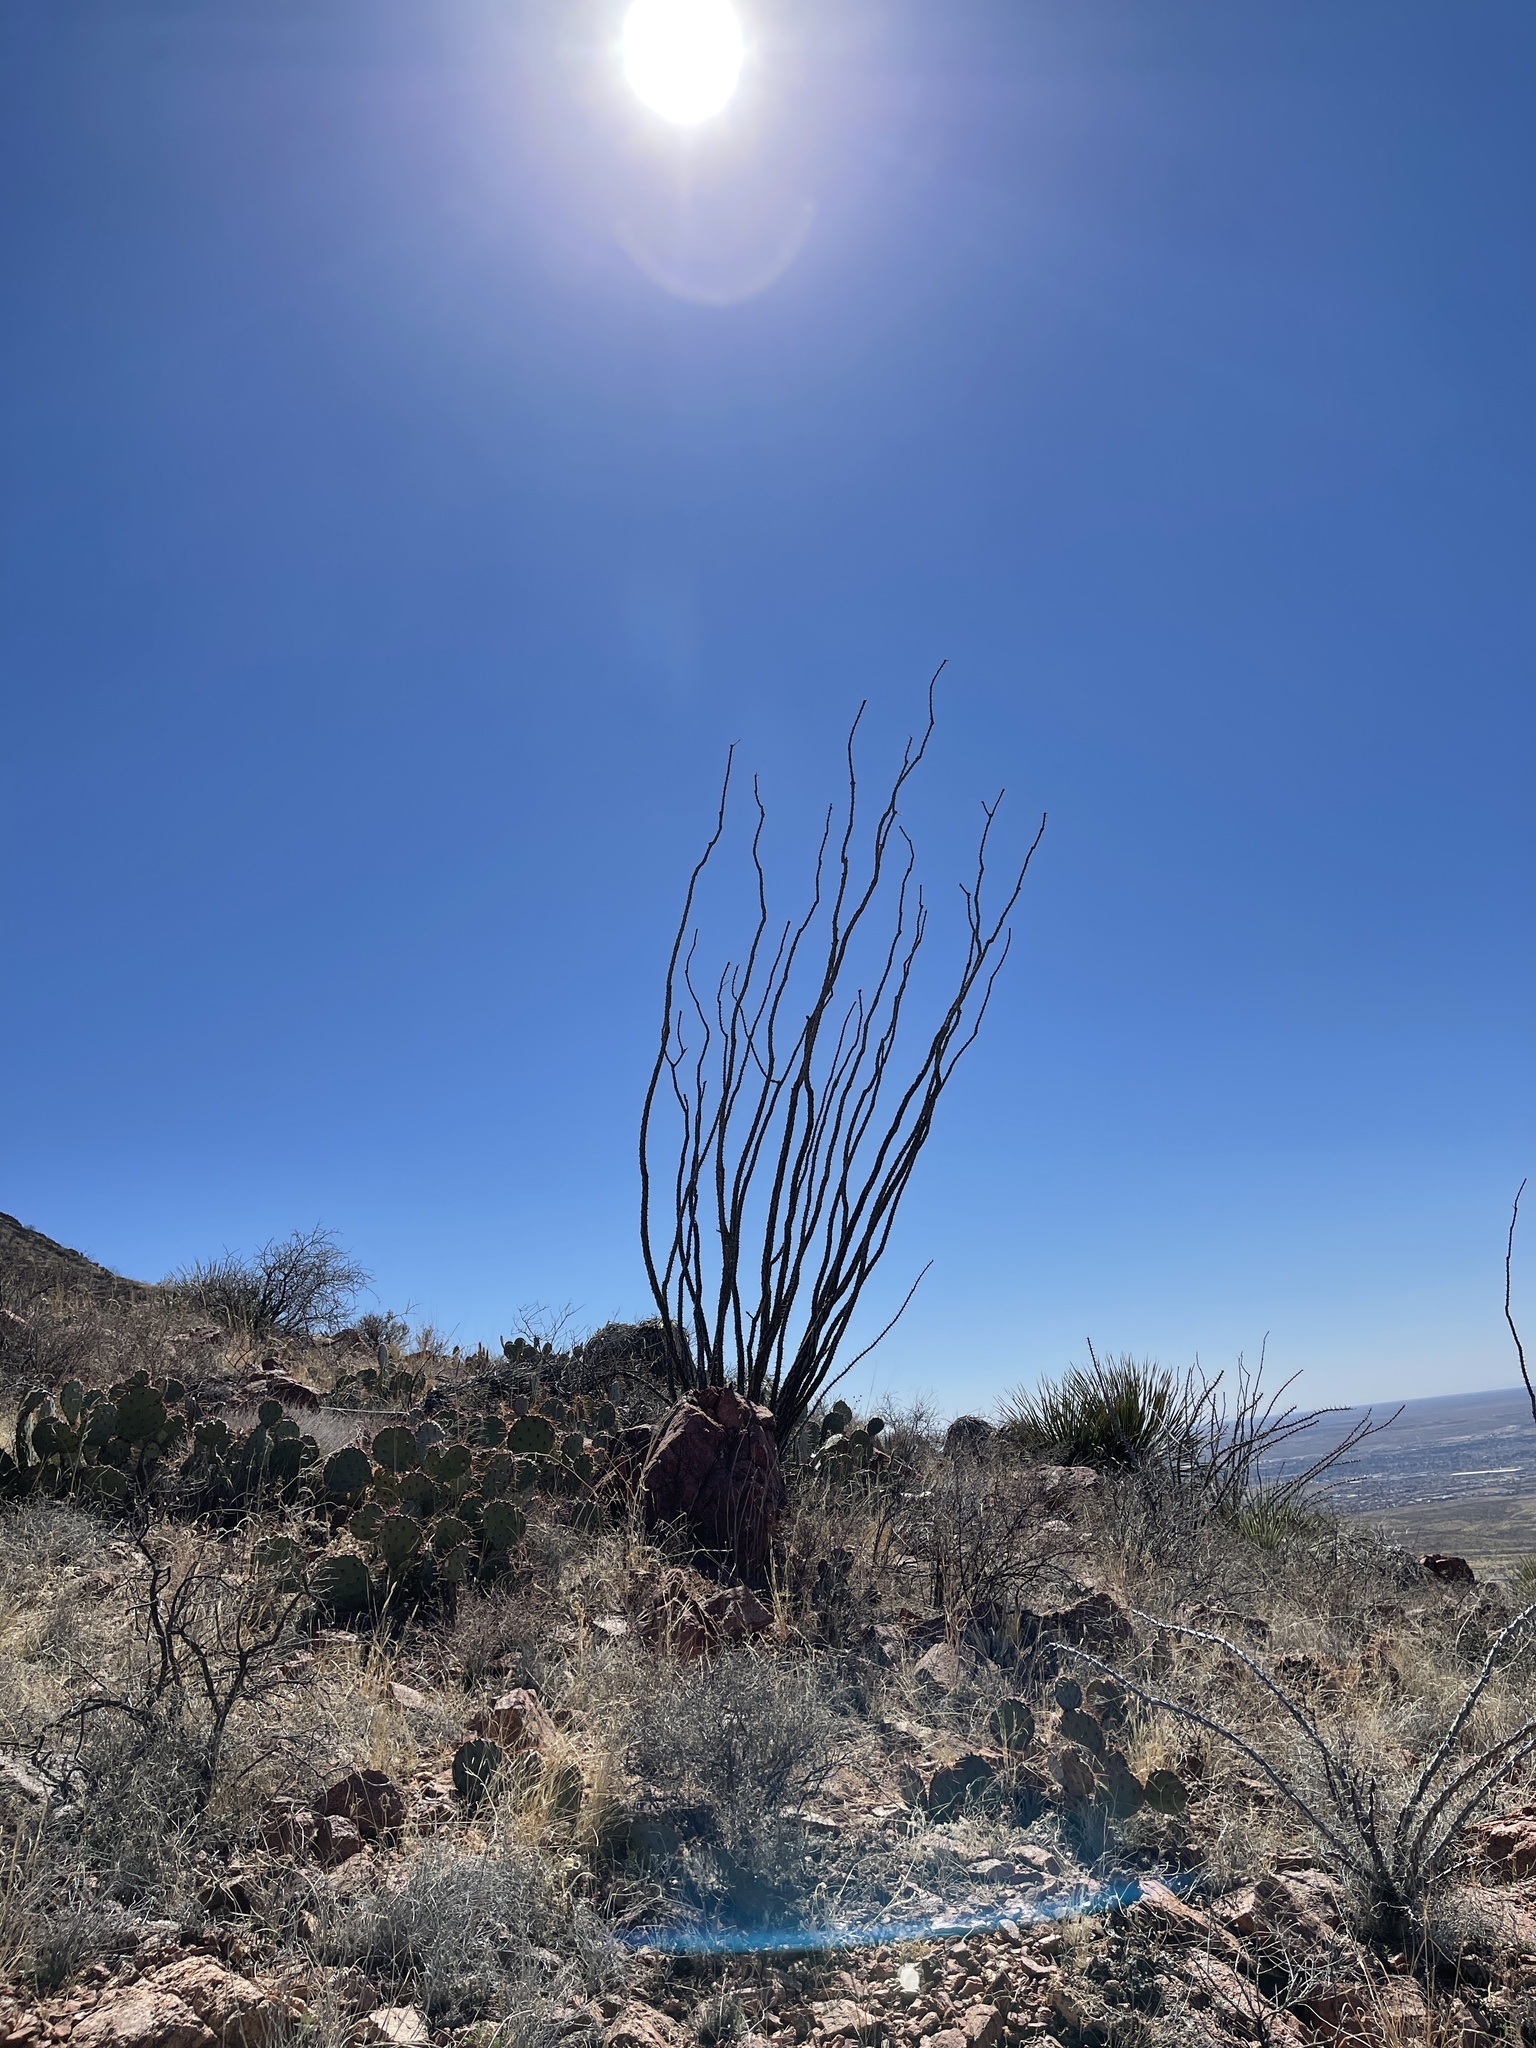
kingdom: Plantae
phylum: Tracheophyta
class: Magnoliopsida
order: Ericales
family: Fouquieriaceae
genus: Fouquieria
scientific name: Fouquieria splendens
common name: Vine-cactus
